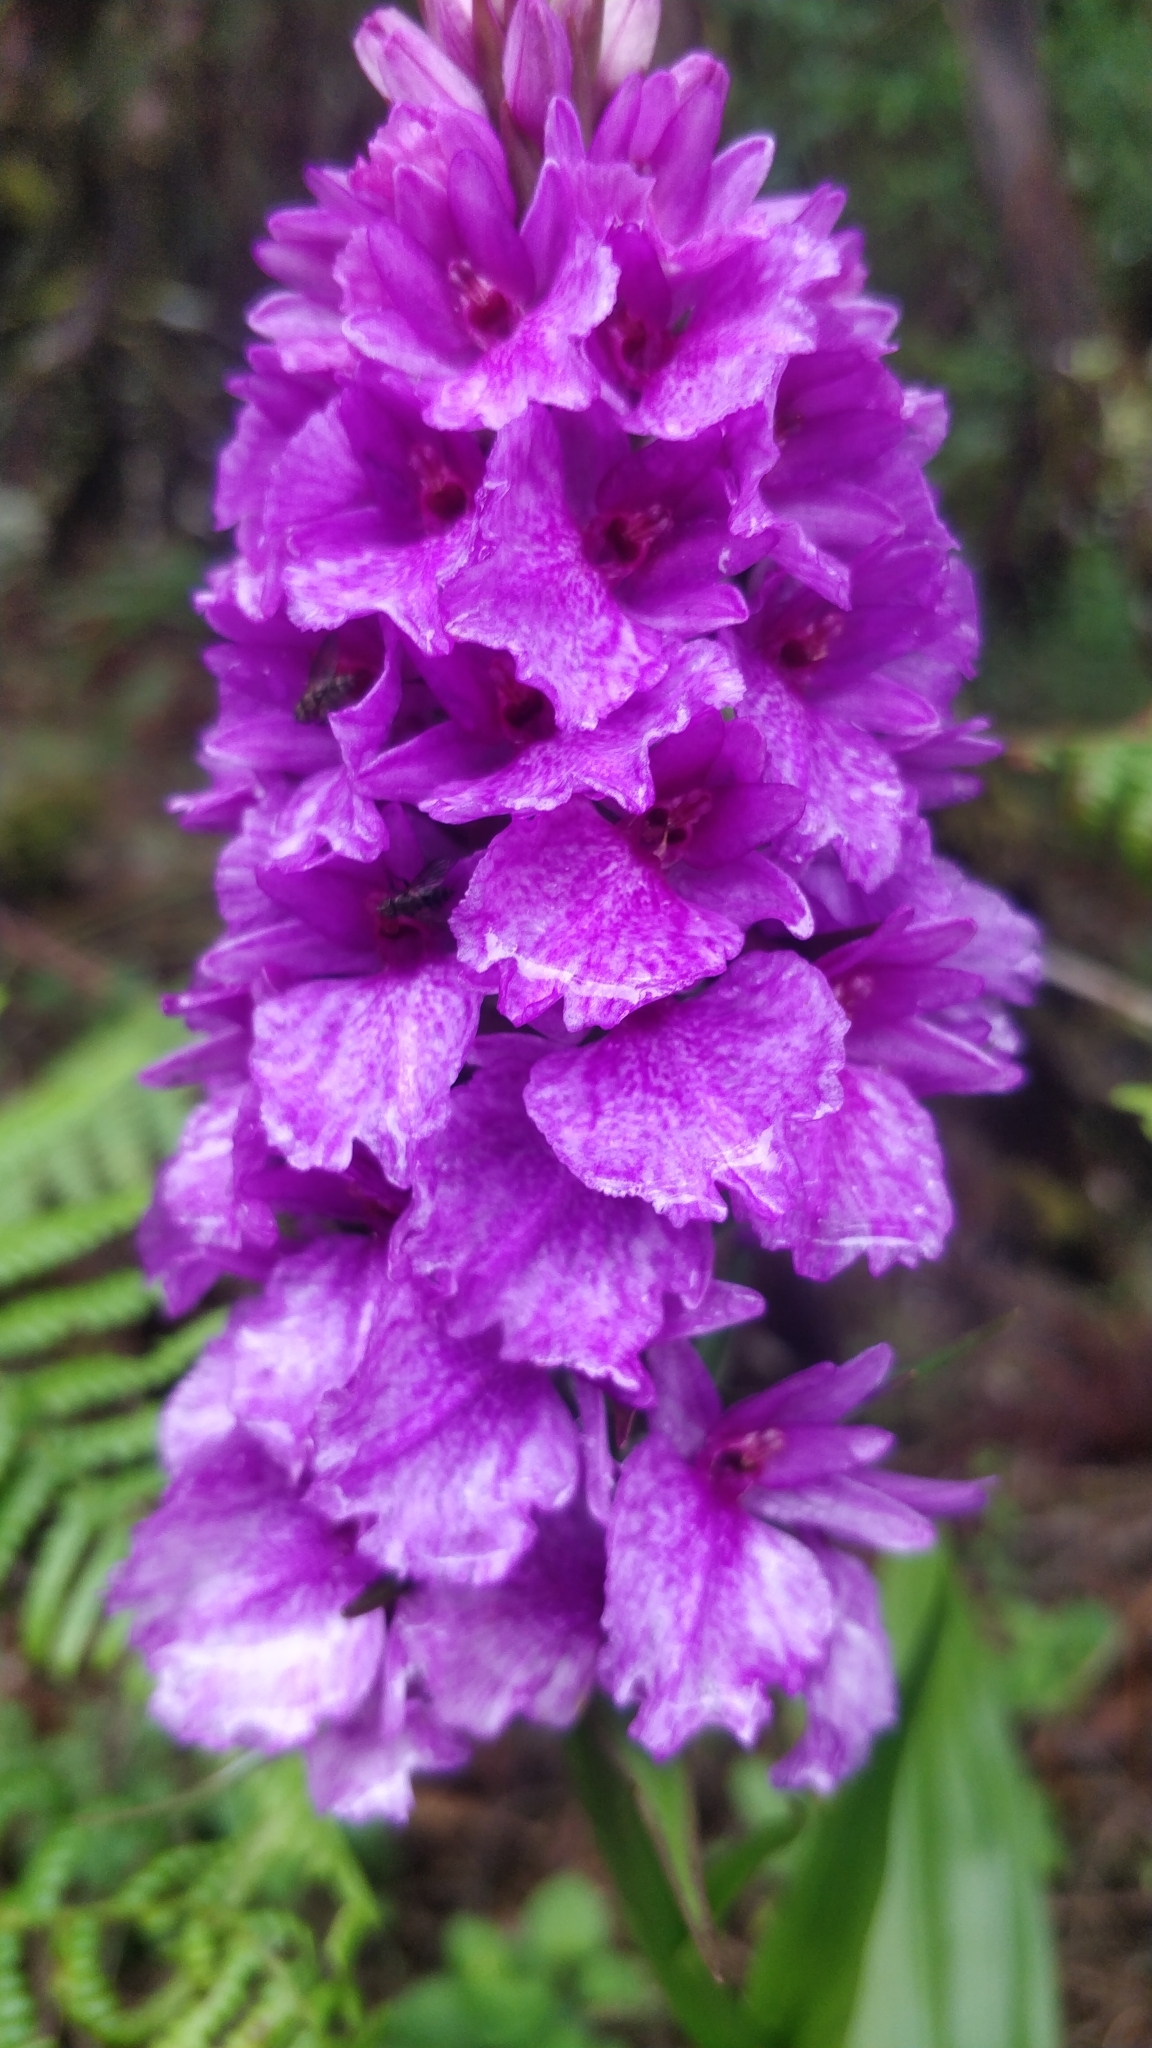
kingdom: Plantae
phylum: Tracheophyta
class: Liliopsida
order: Asparagales
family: Orchidaceae
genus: Dactylorhiza
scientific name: Dactylorhiza foliosa
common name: Richly-leaved dactylorhiza
